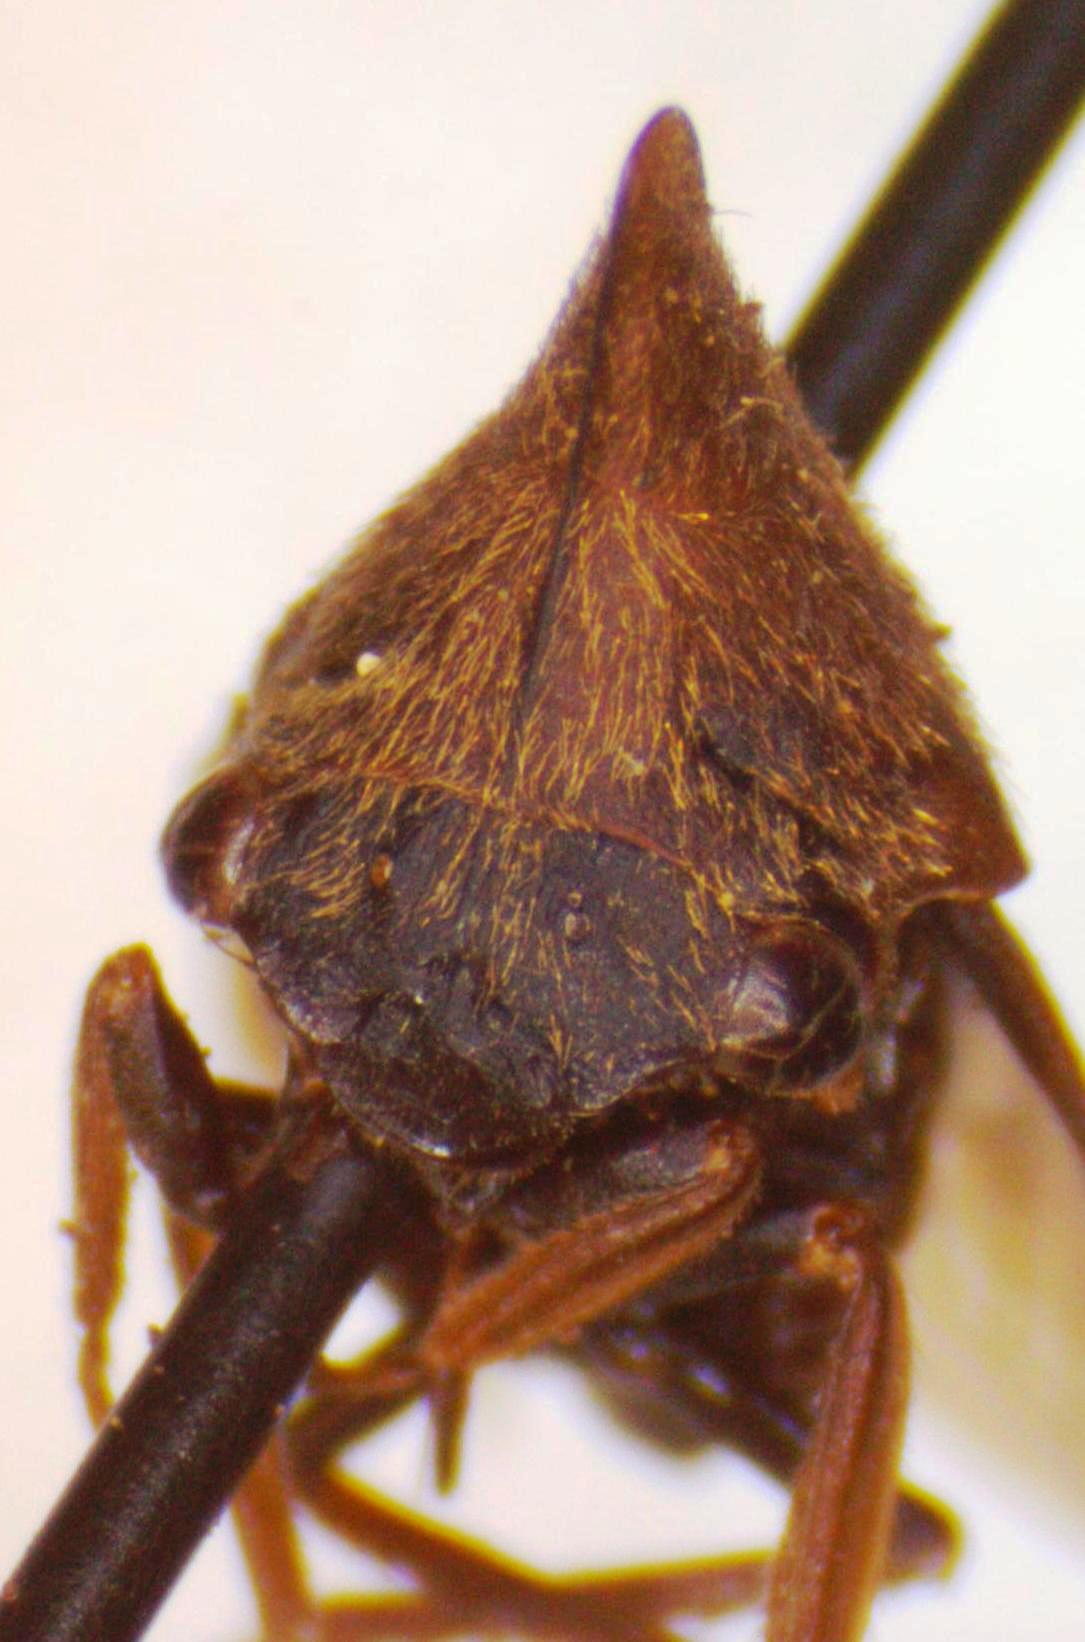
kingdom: Animalia
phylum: Arthropoda
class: Insecta
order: Hemiptera
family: Membracidae
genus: Guayaquila
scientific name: Guayaquila obesa
